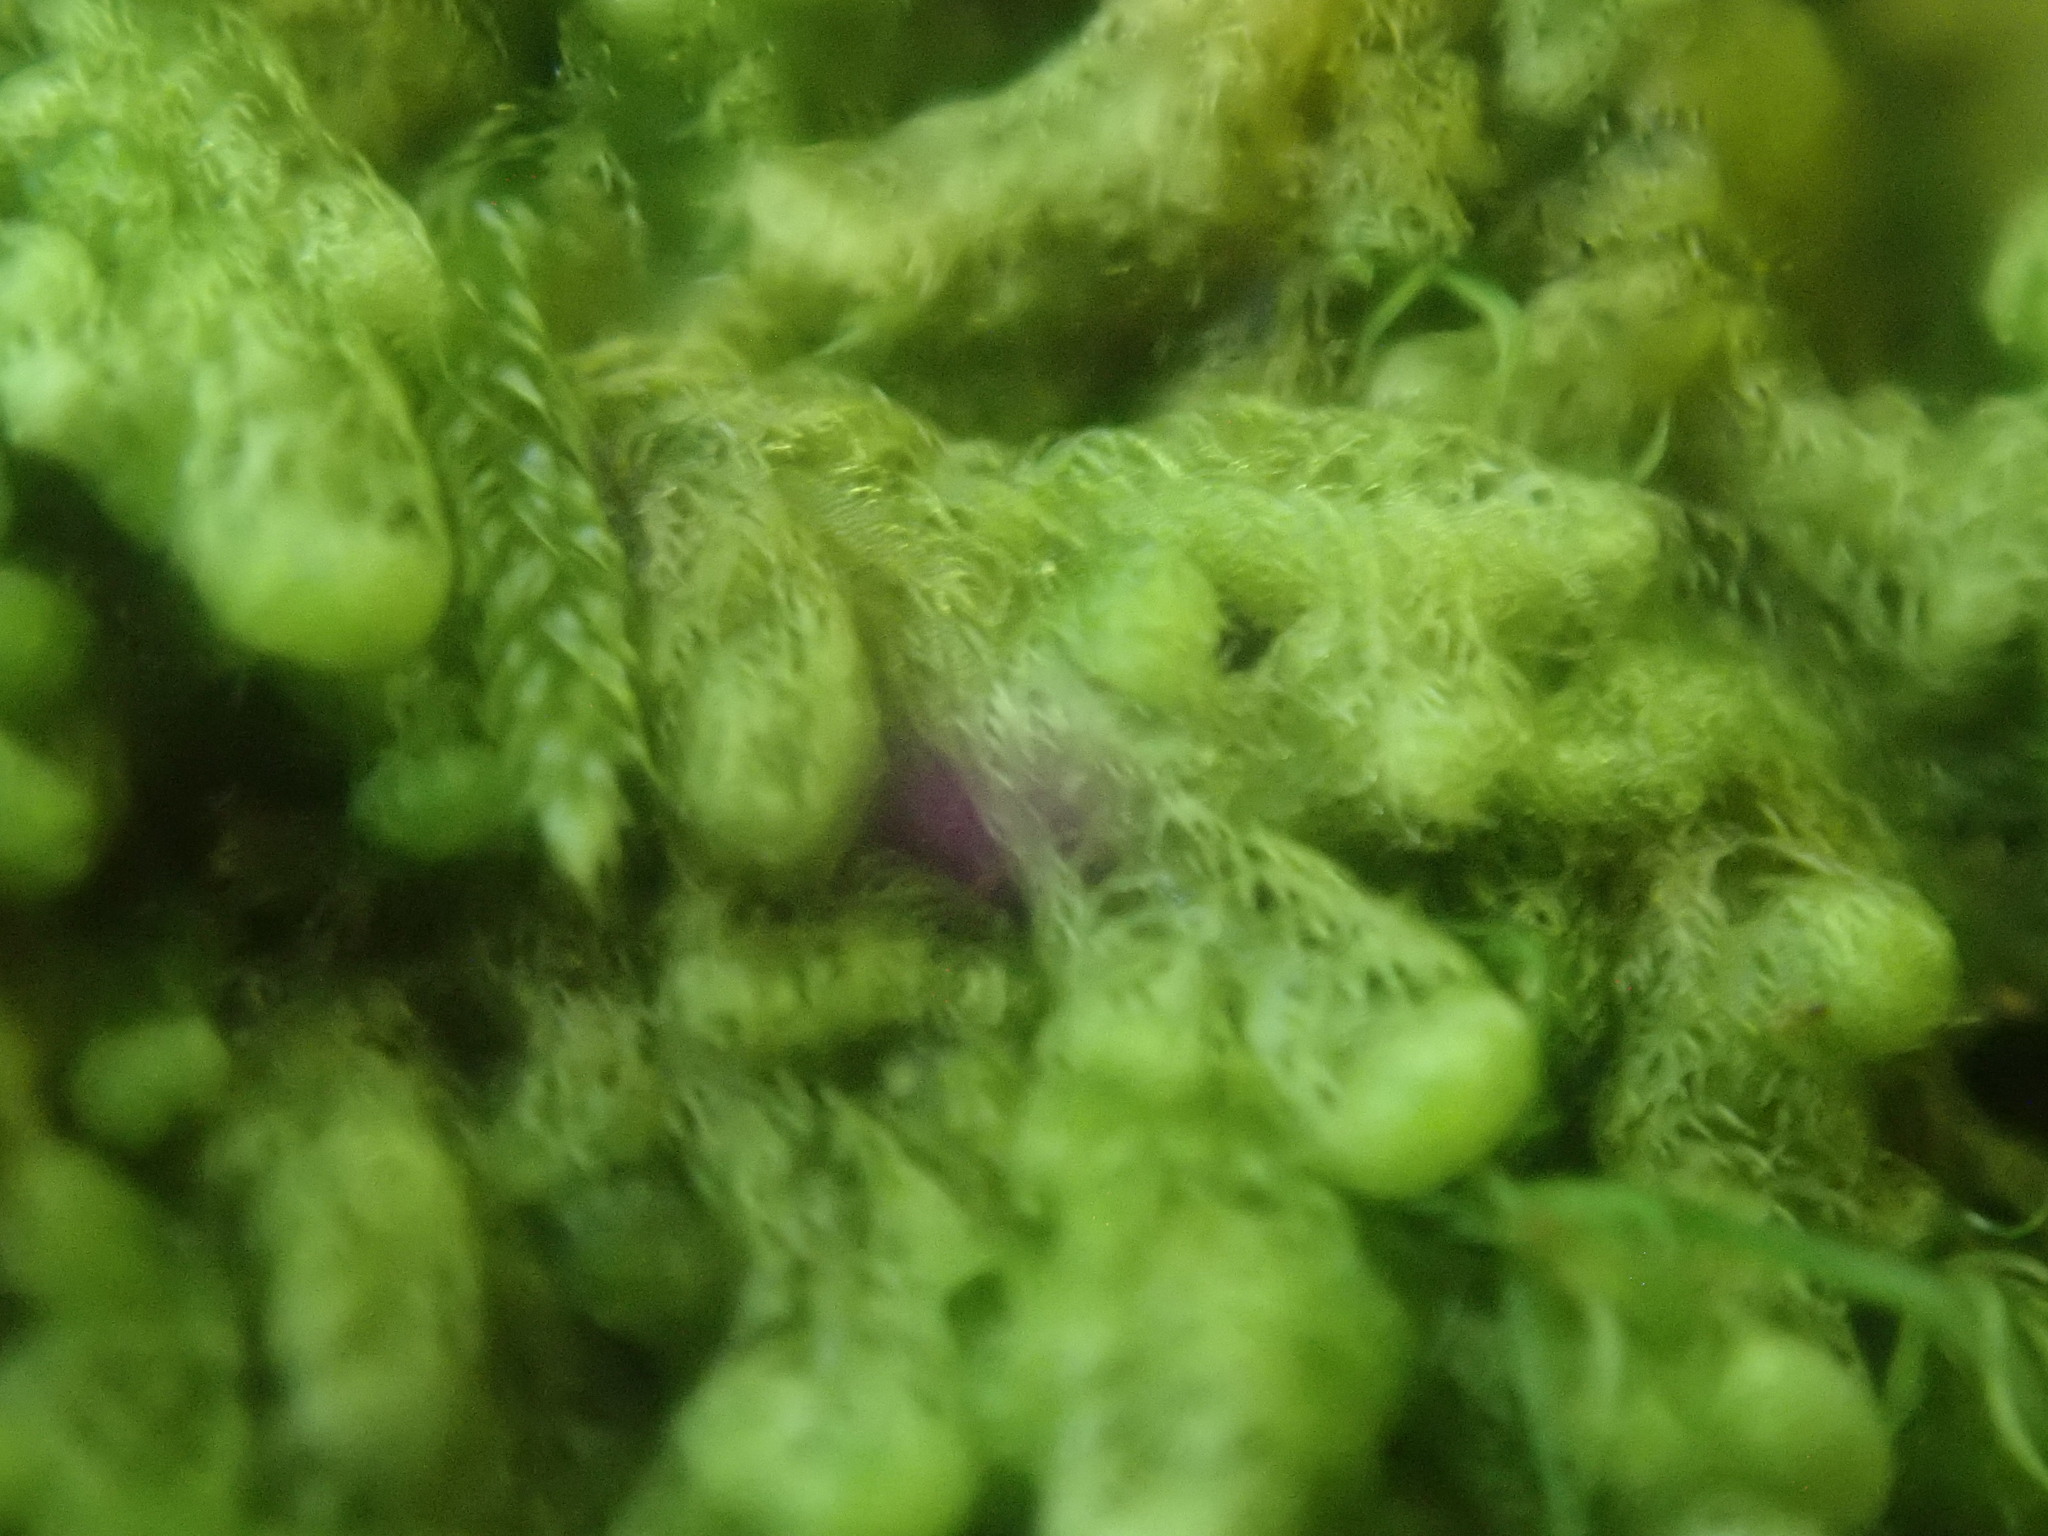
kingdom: Plantae
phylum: Marchantiophyta
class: Jungermanniopsida
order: Ptilidiales
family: Ptilidiaceae
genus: Ptilidium
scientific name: Ptilidium pulcherrimum
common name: Tree fringewort
